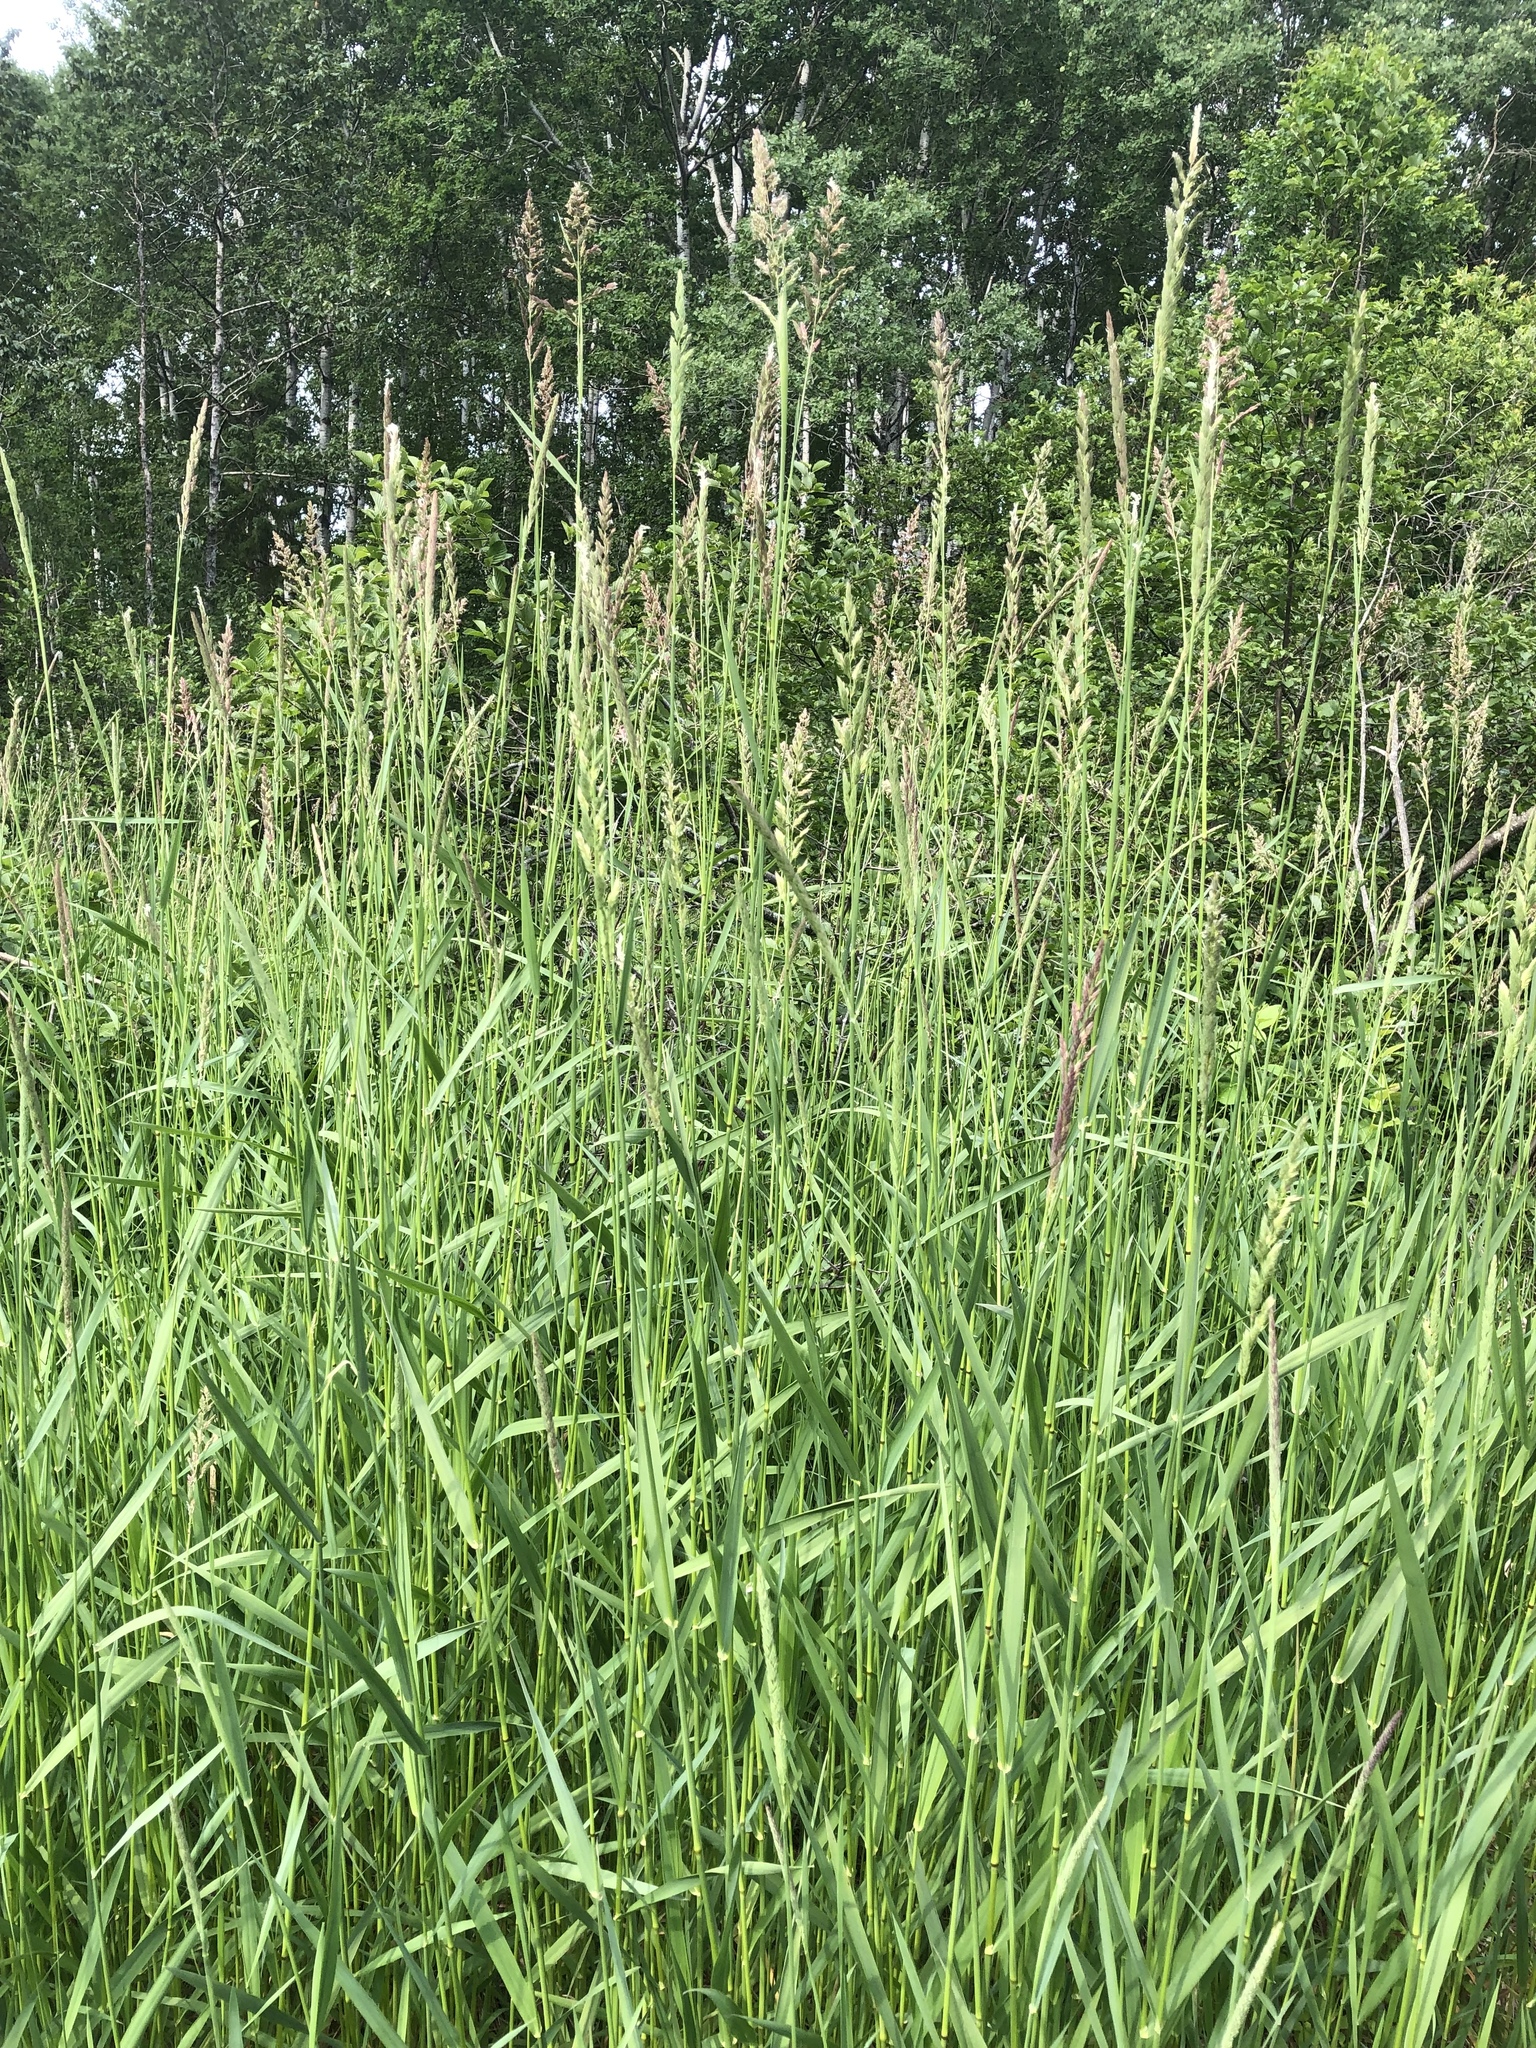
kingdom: Plantae
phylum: Tracheophyta
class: Liliopsida
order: Poales
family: Poaceae
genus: Phalaris
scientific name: Phalaris arundinacea
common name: Reed canary-grass
